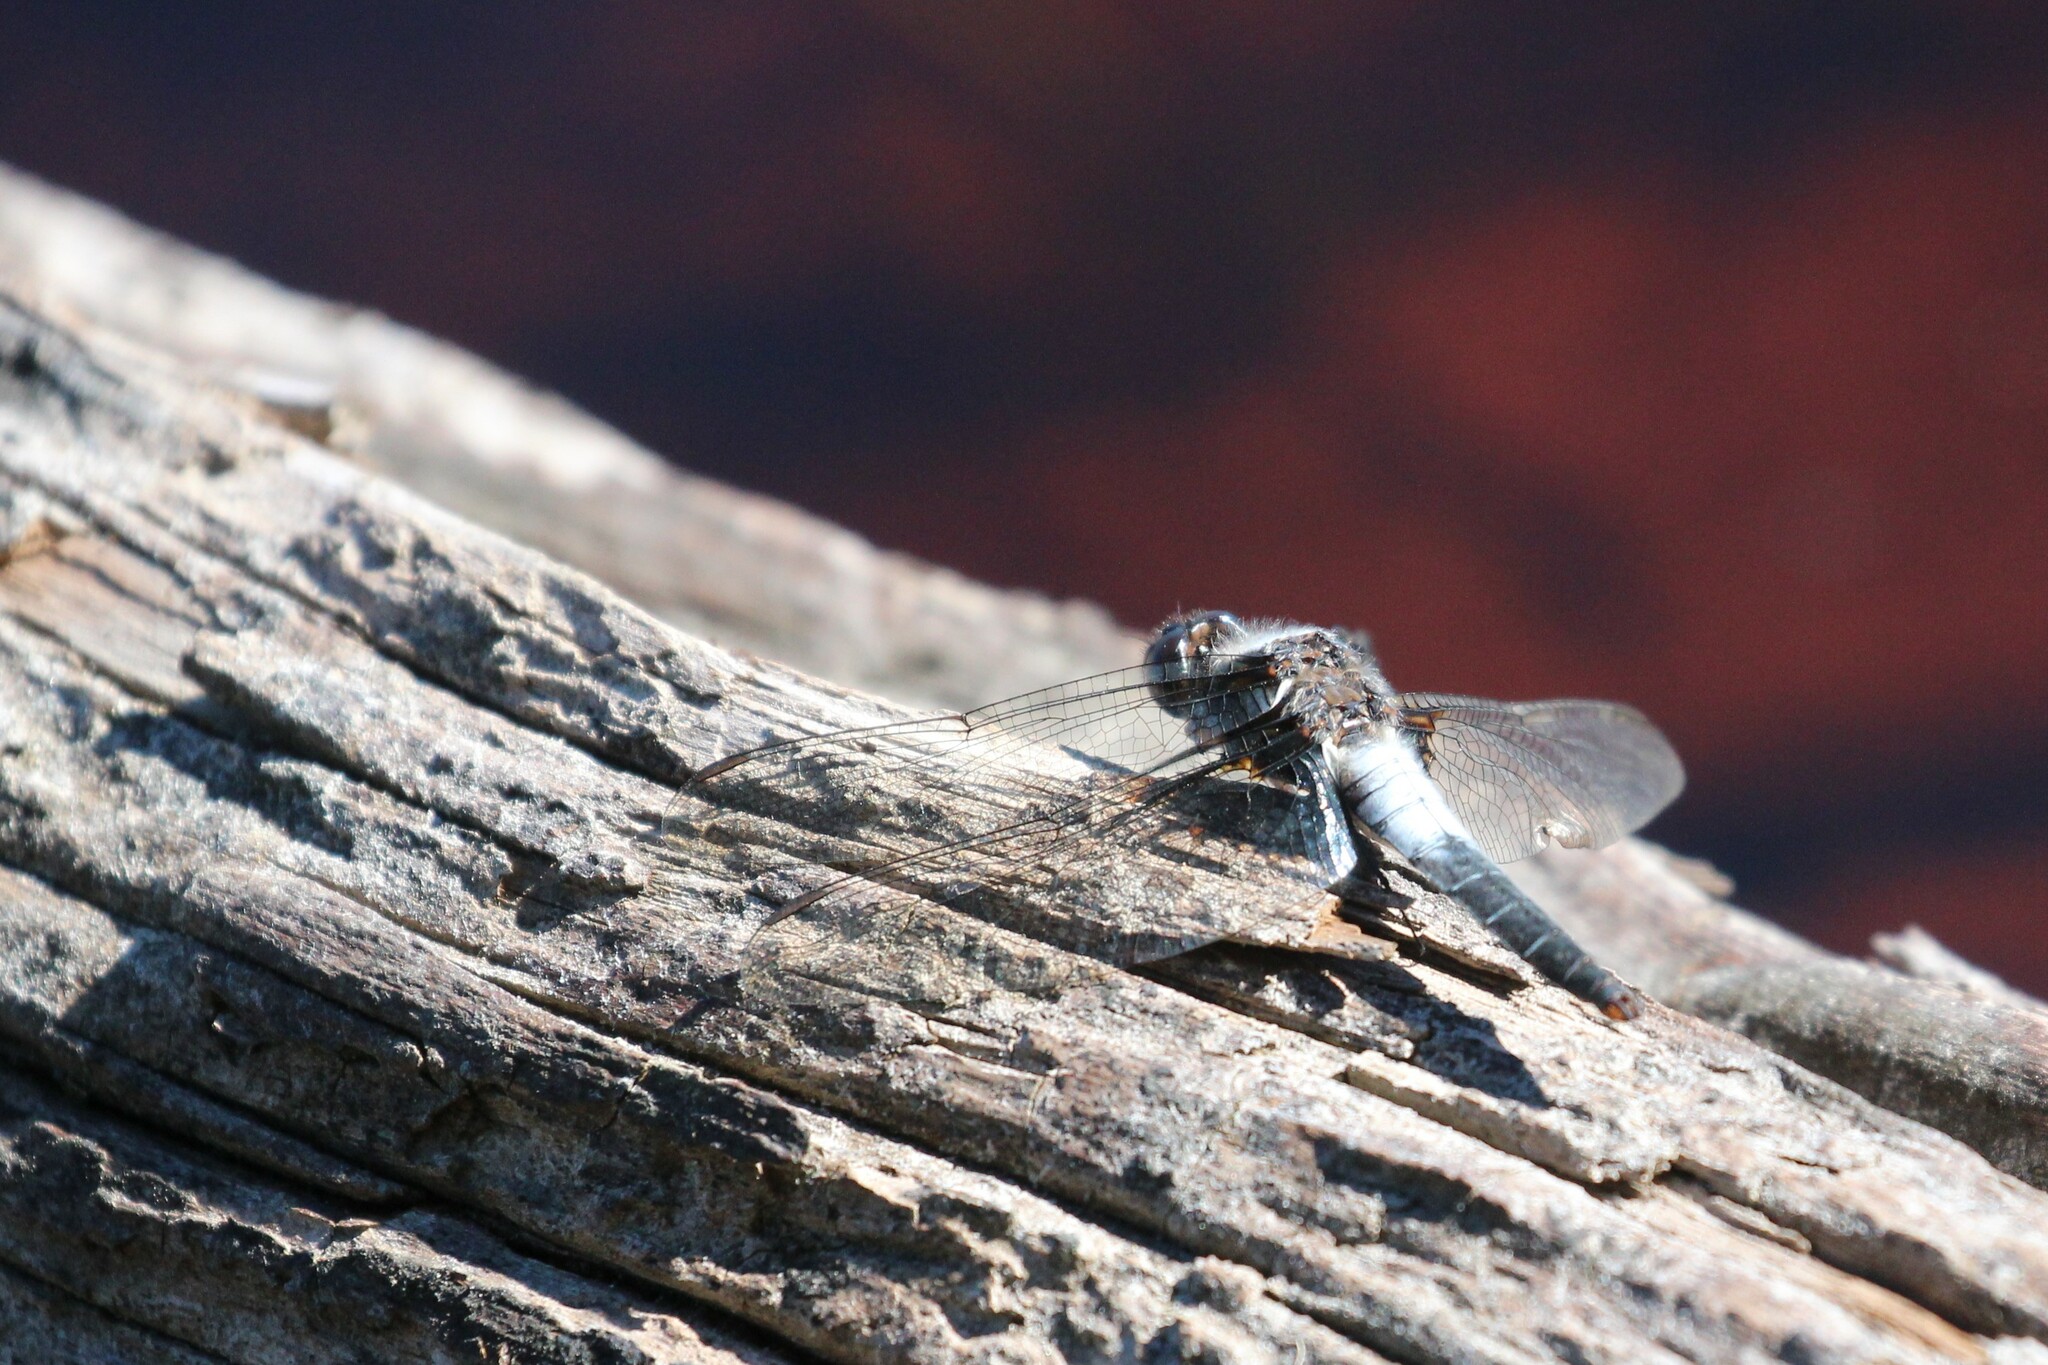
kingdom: Animalia
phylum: Arthropoda
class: Insecta
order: Odonata
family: Libellulidae
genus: Ladona
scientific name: Ladona julia
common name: Chalk-fronted corporal
